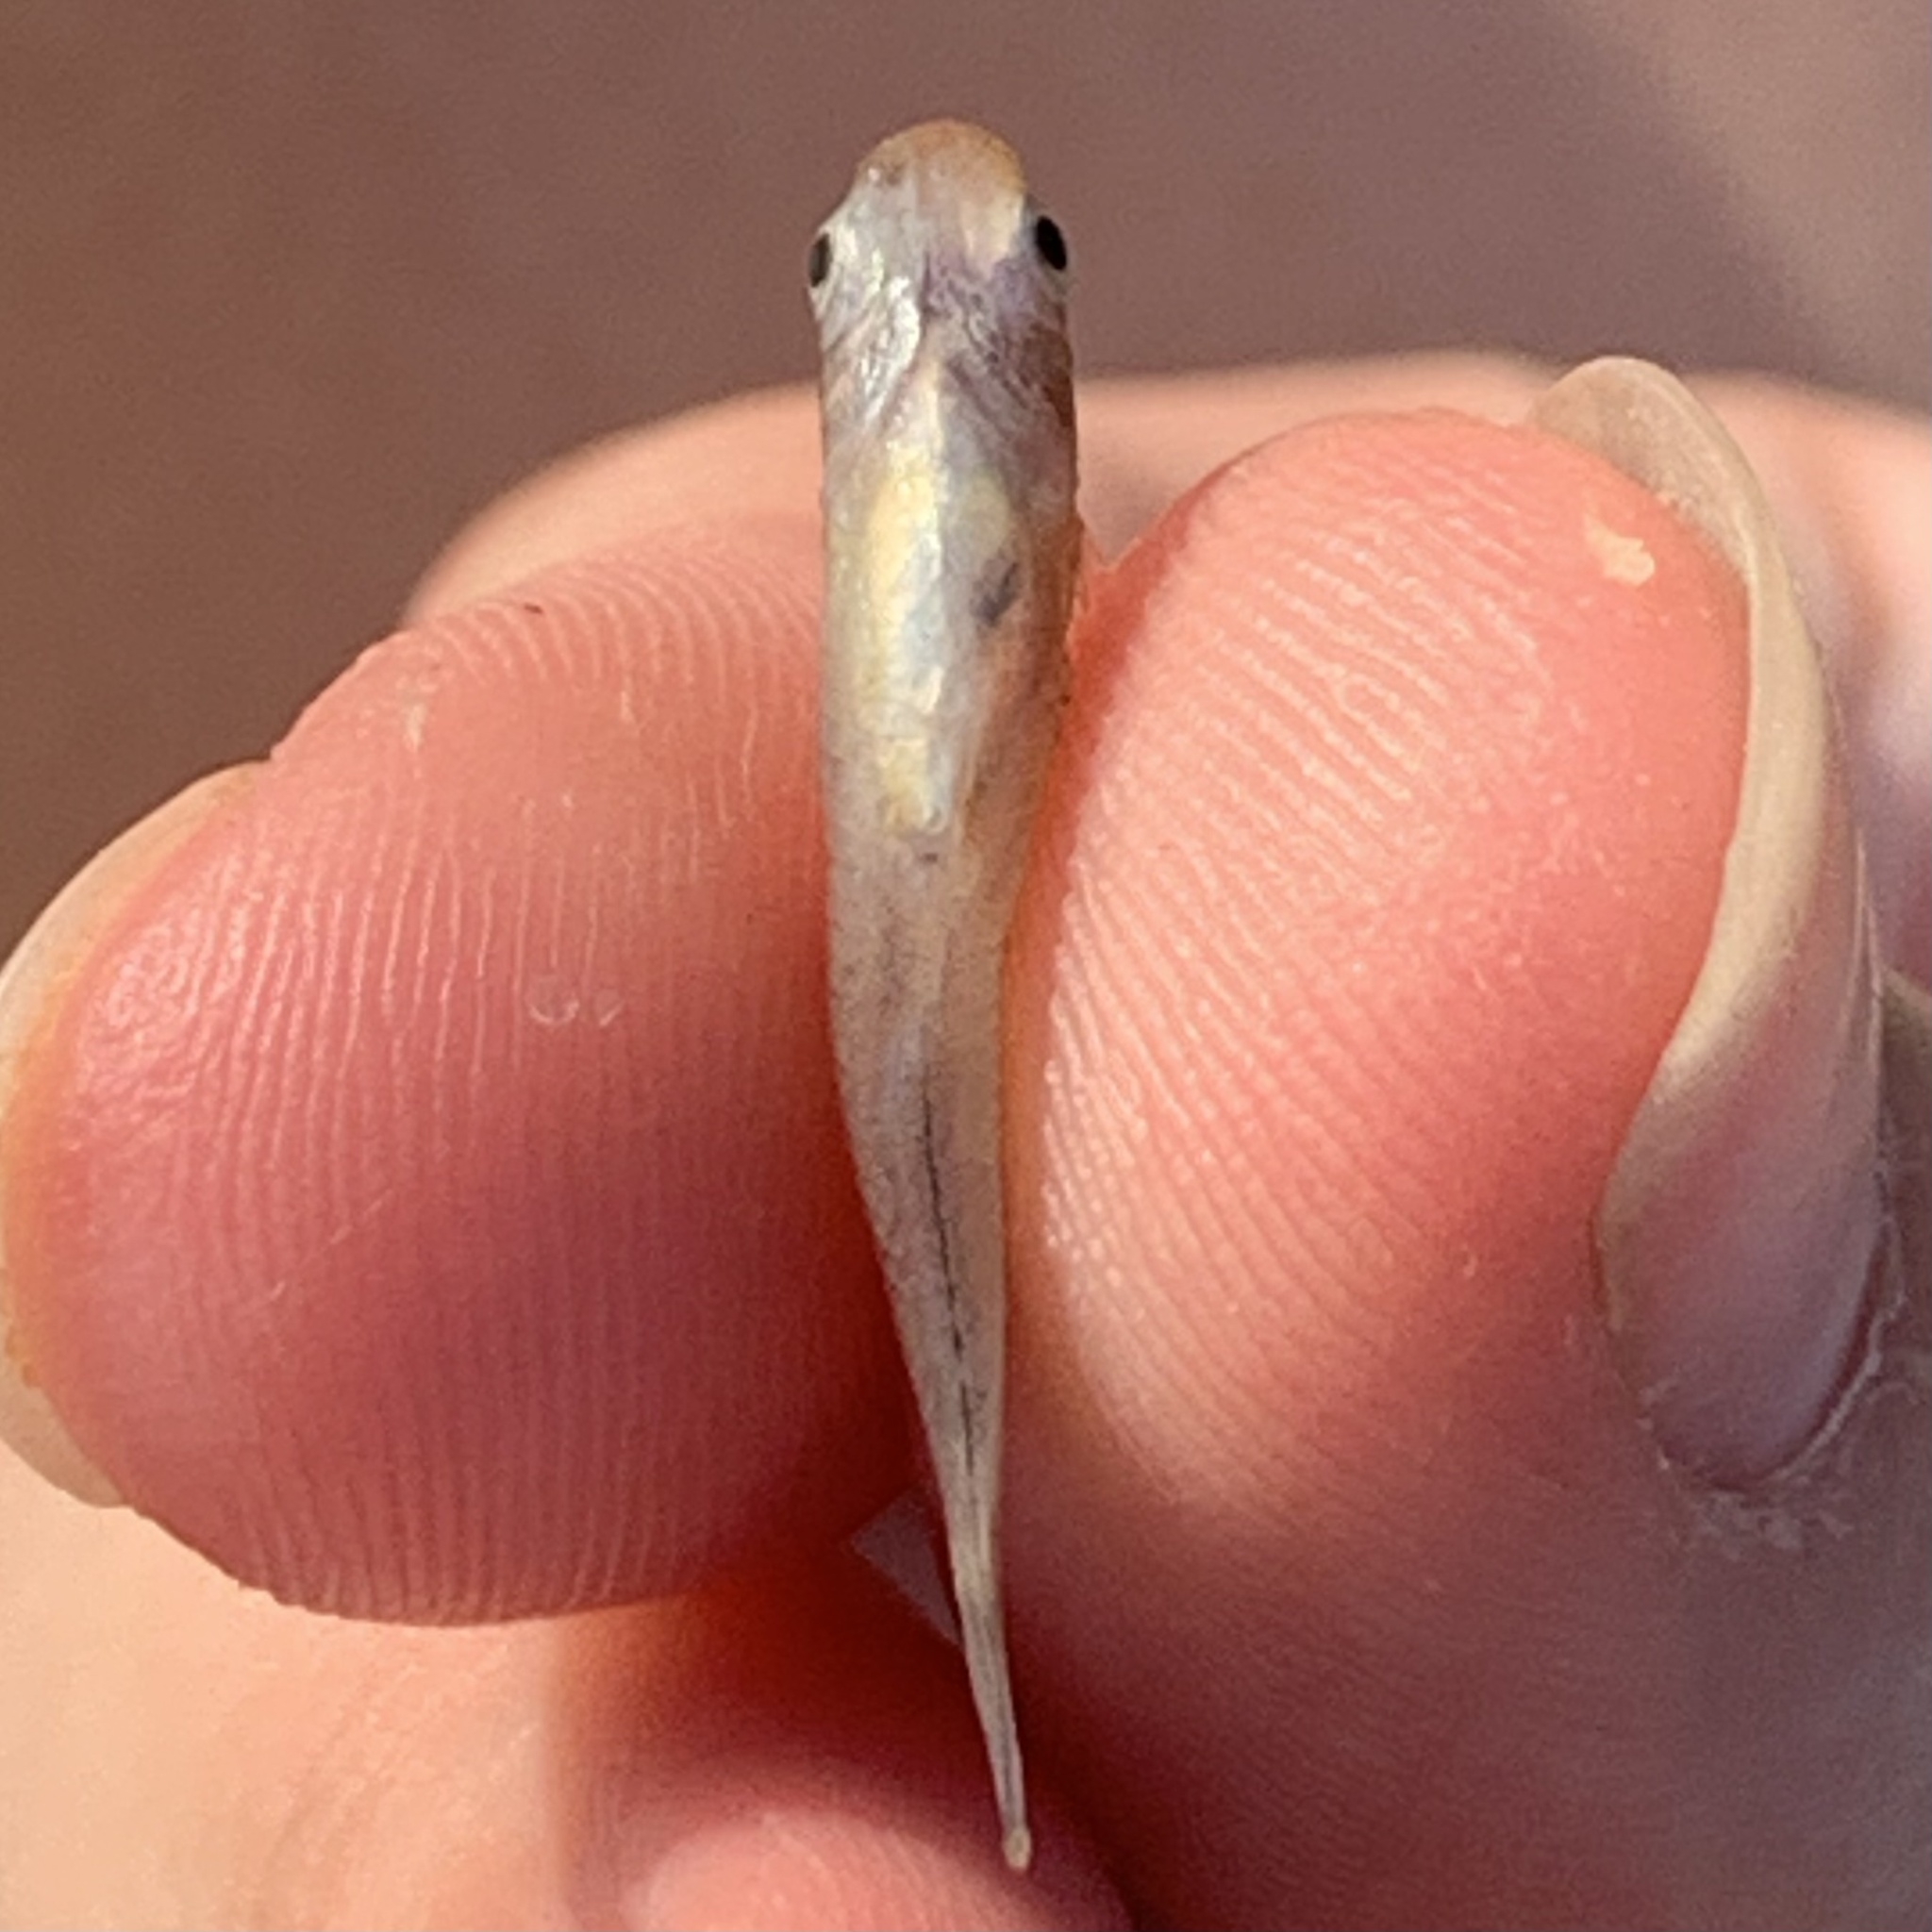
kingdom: Animalia
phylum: Chordata
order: Cyprinodontiformes
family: Poeciliidae
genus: Gambusia
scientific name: Gambusia affinis
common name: Mosquitofish
